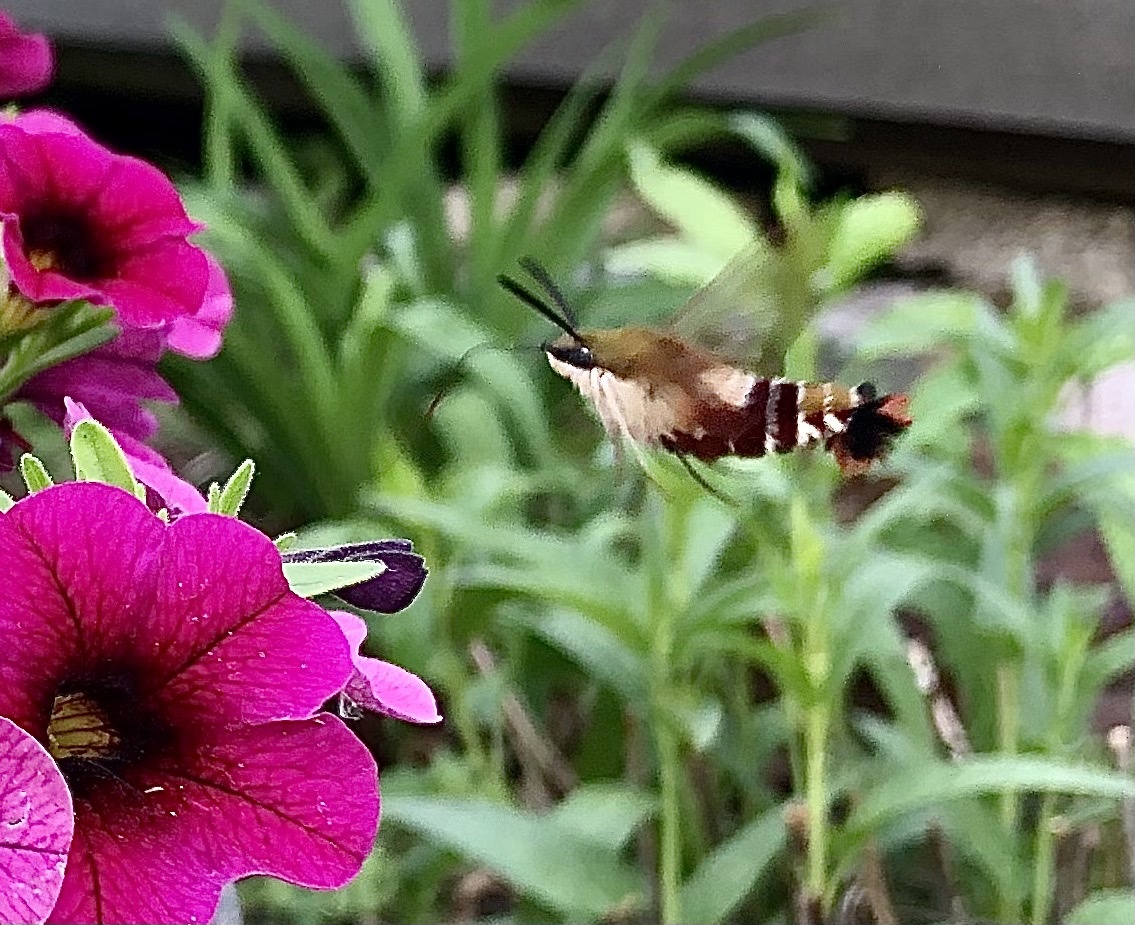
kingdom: Animalia
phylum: Arthropoda
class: Insecta
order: Lepidoptera
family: Sphingidae
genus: Hemaris
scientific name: Hemaris thysbe
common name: Common clear-wing
